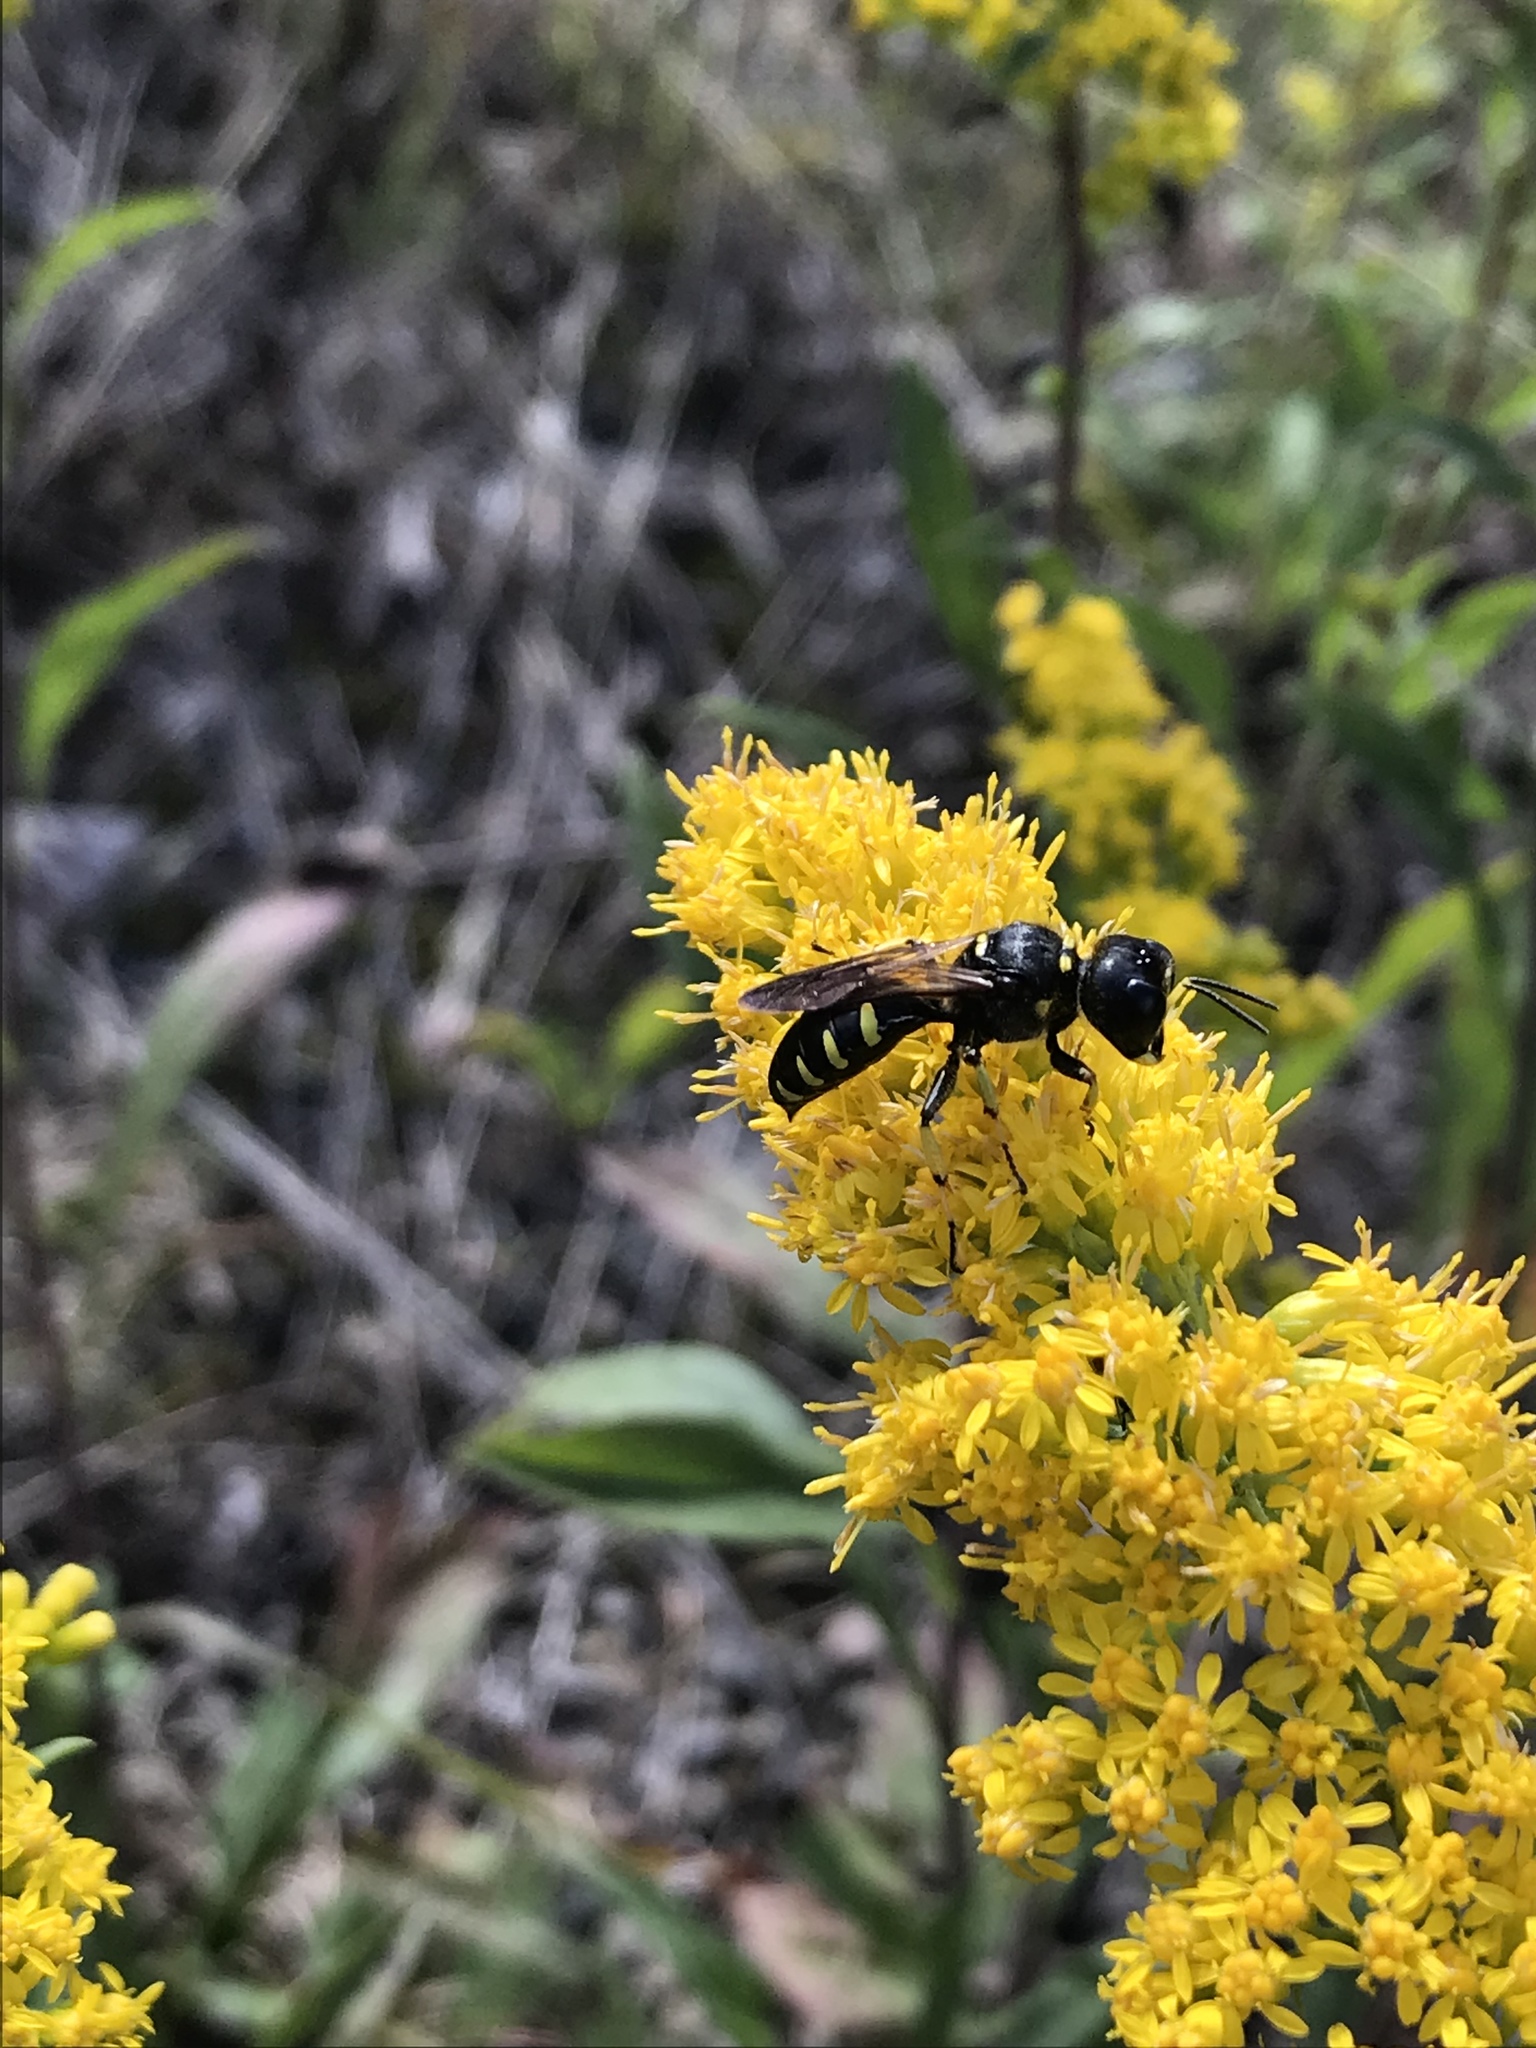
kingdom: Animalia
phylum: Arthropoda
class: Insecta
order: Hymenoptera
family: Crabronidae
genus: Ectemnius
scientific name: Ectemnius maculosus
